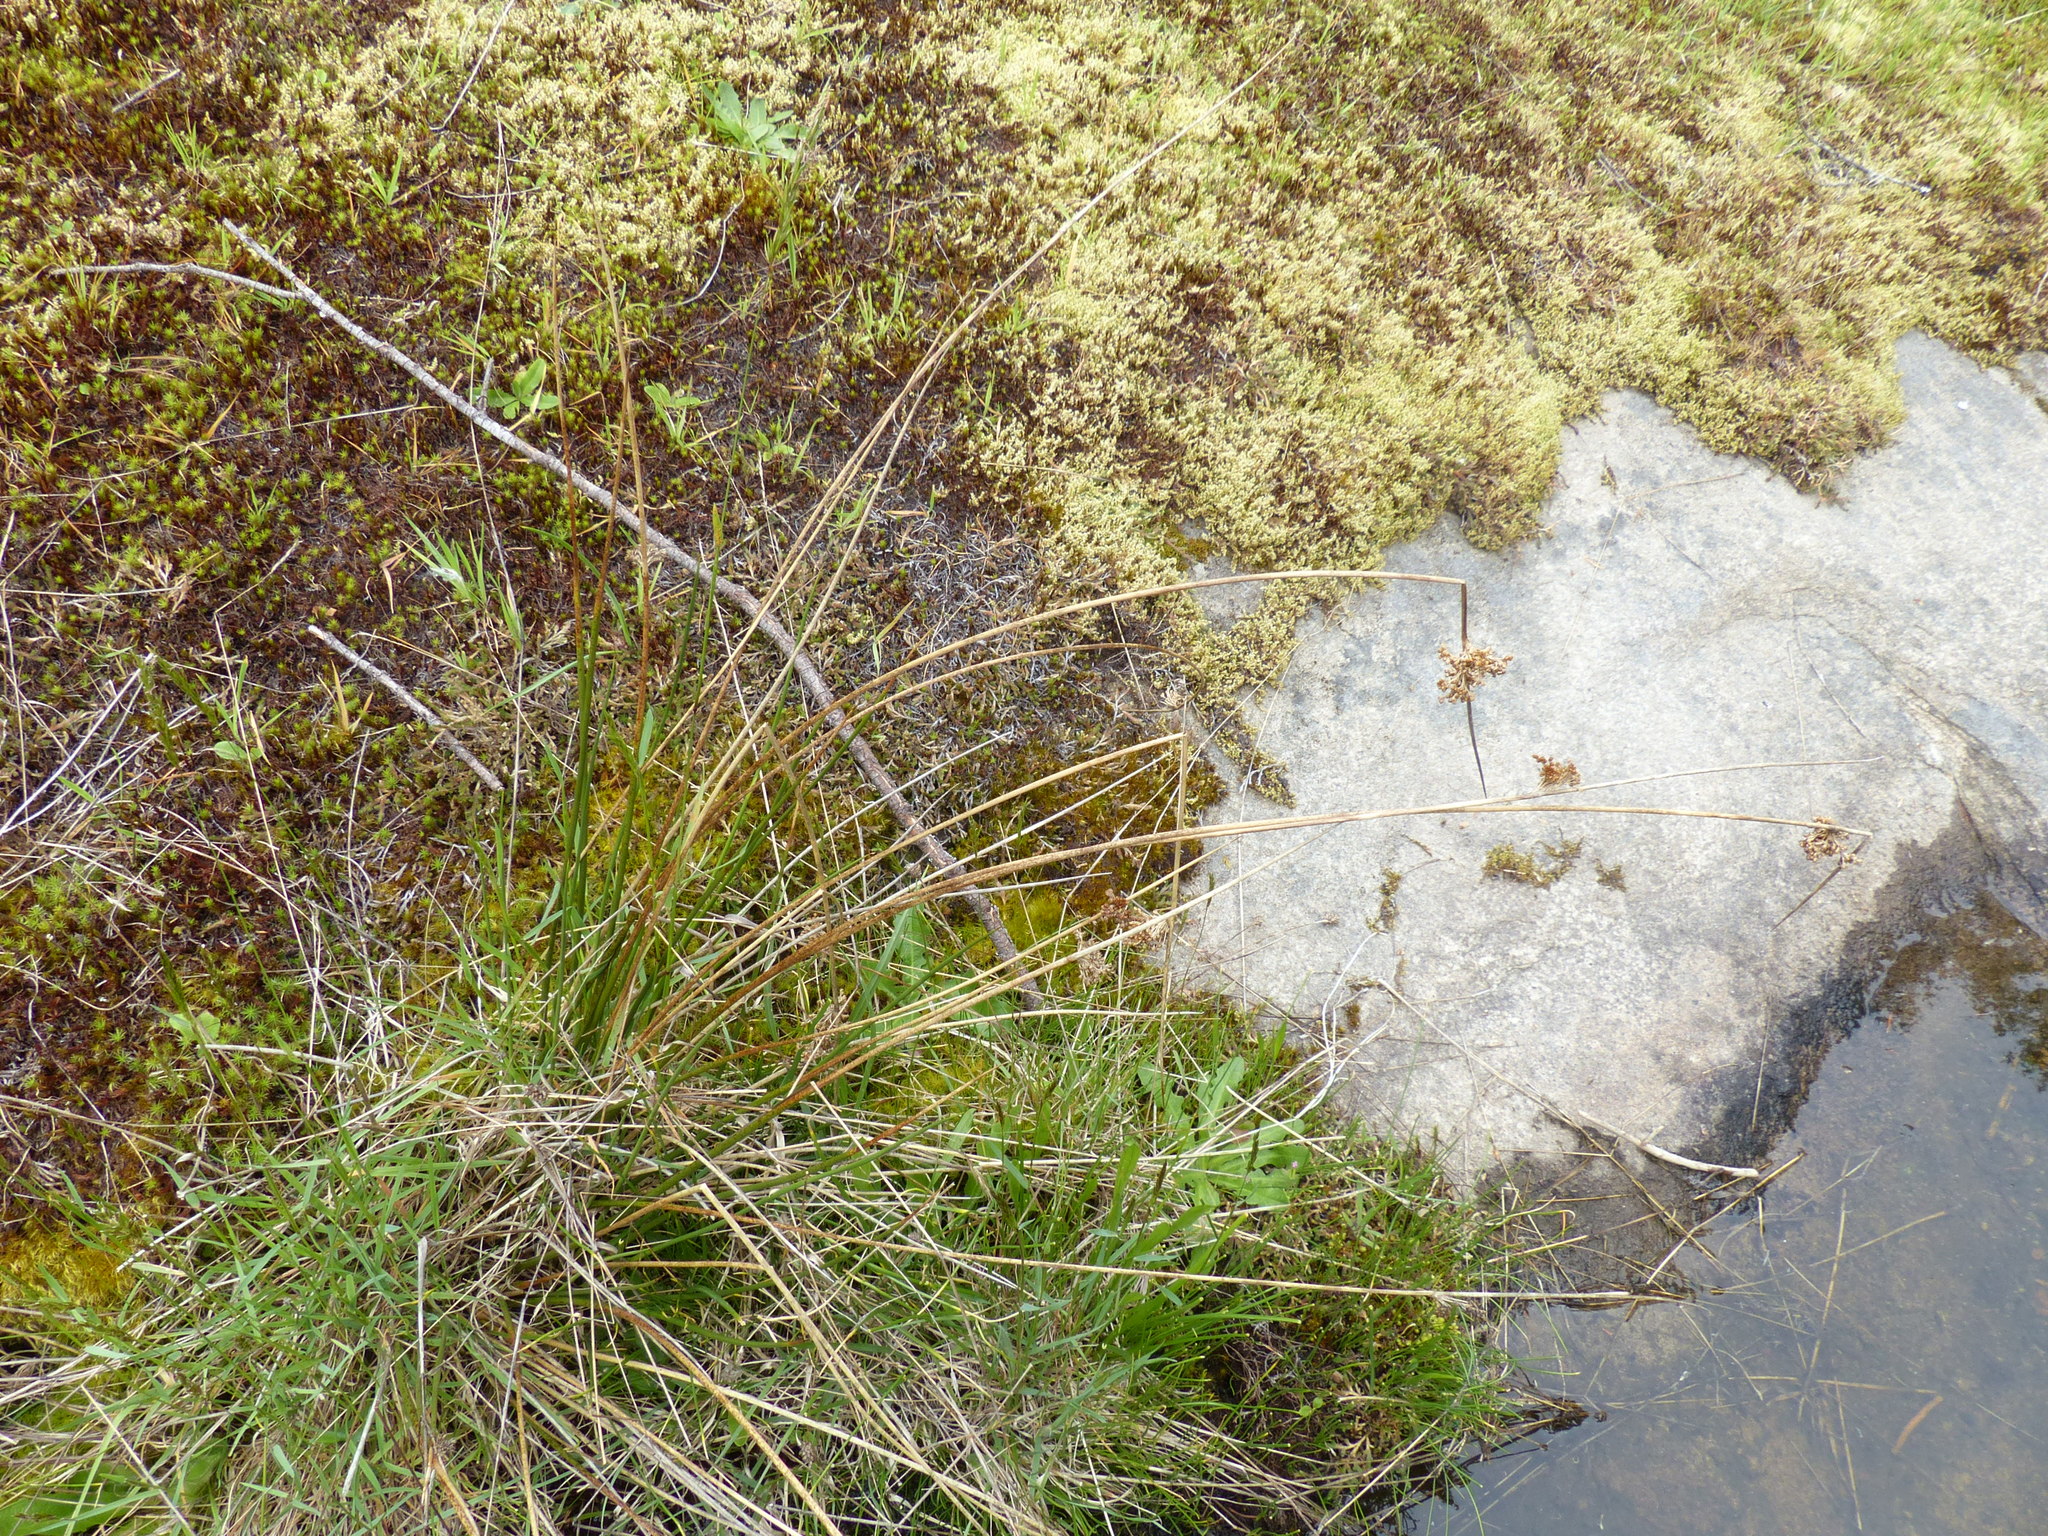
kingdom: Plantae
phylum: Tracheophyta
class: Liliopsida
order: Poales
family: Juncaceae
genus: Juncus
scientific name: Juncus effusus
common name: Soft rush
